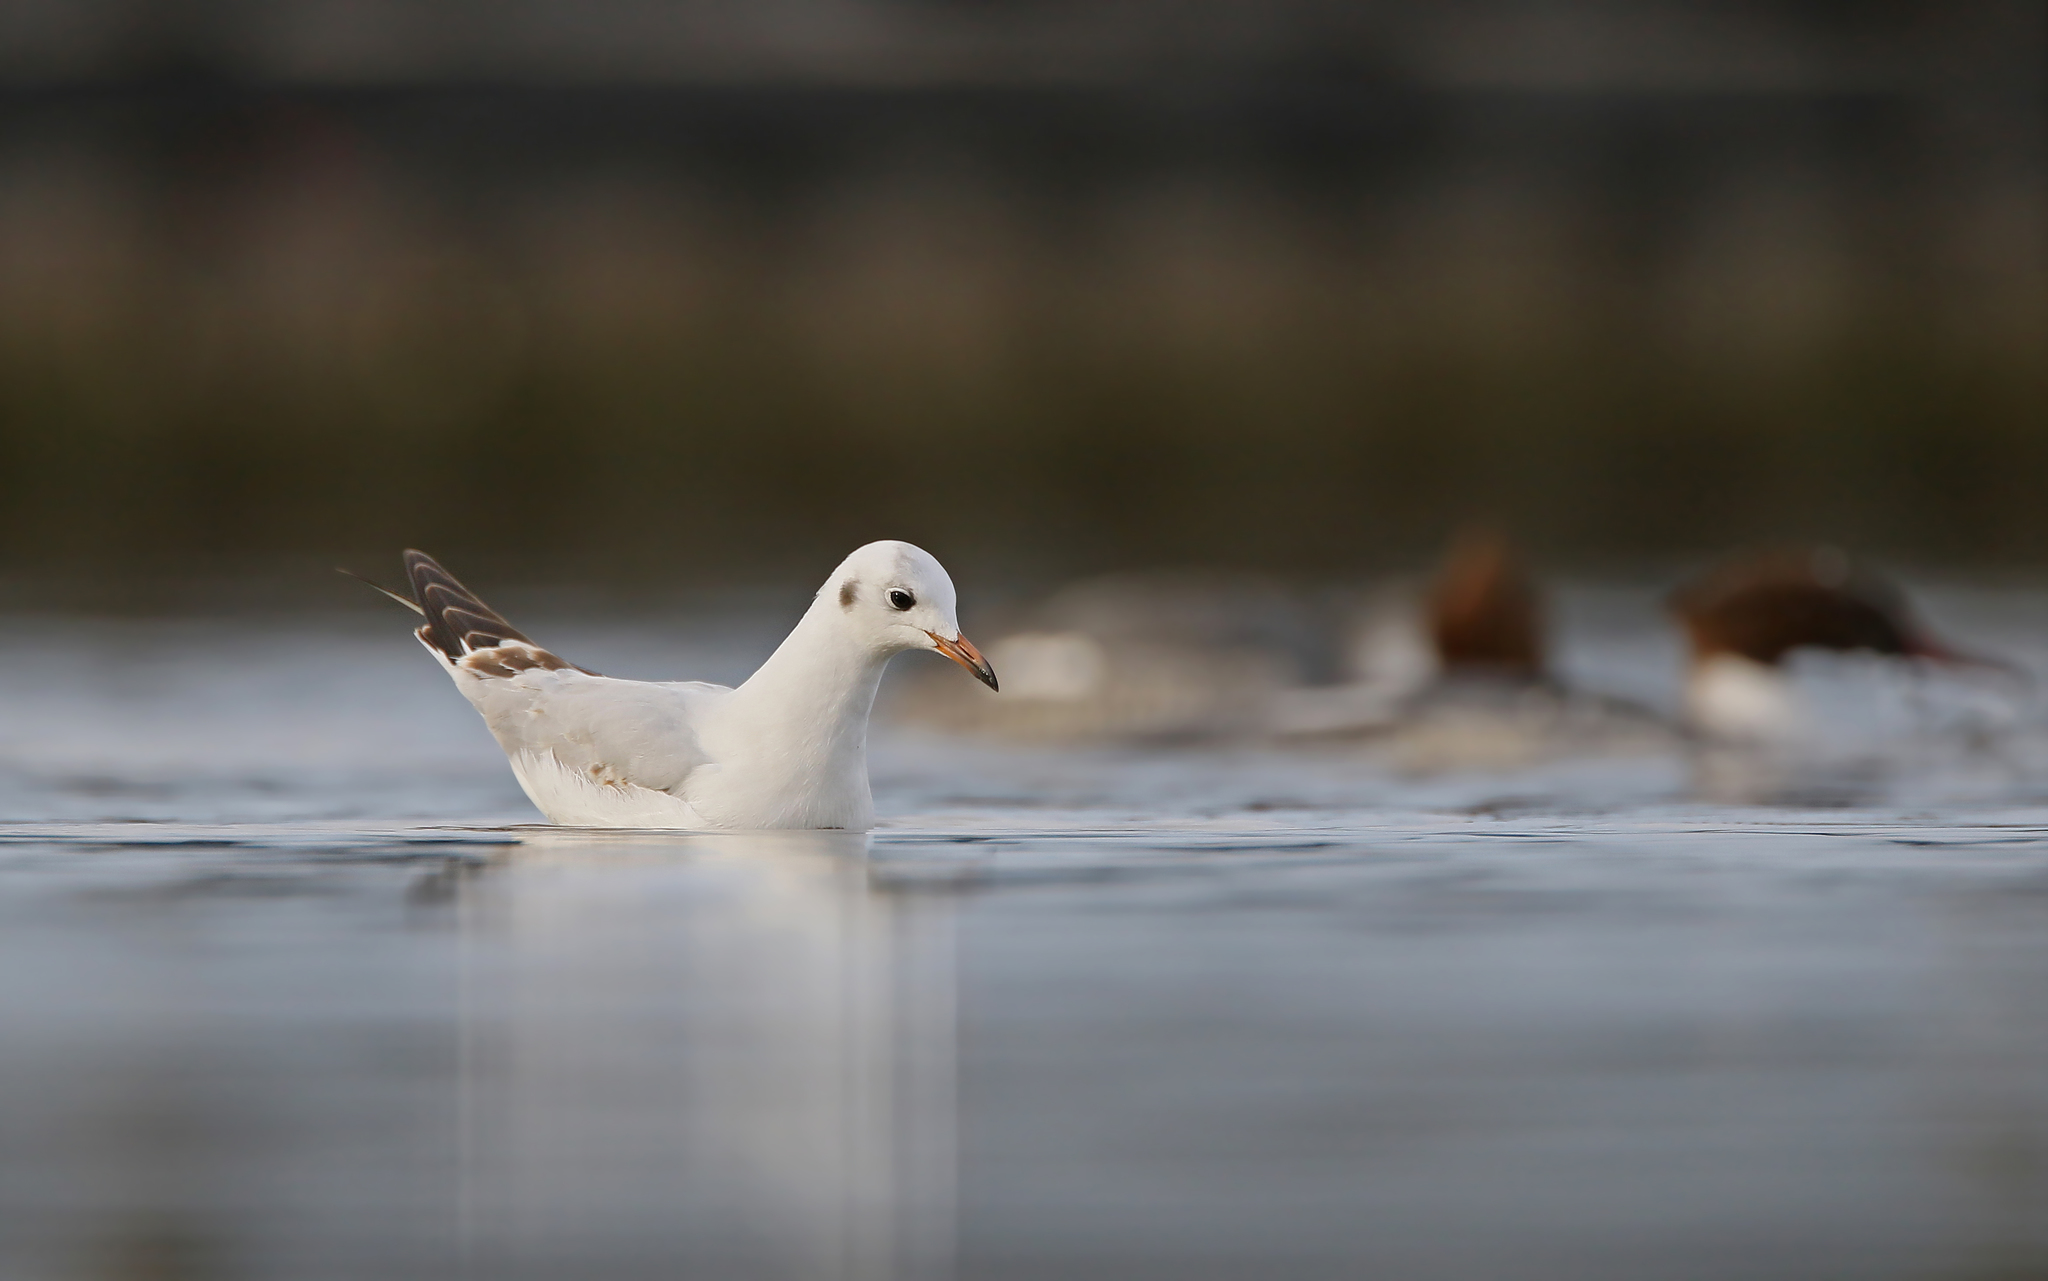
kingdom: Animalia
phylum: Chordata
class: Aves
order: Charadriiformes
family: Laridae
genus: Chroicocephalus
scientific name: Chroicocephalus ridibundus
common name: Black-headed gull
